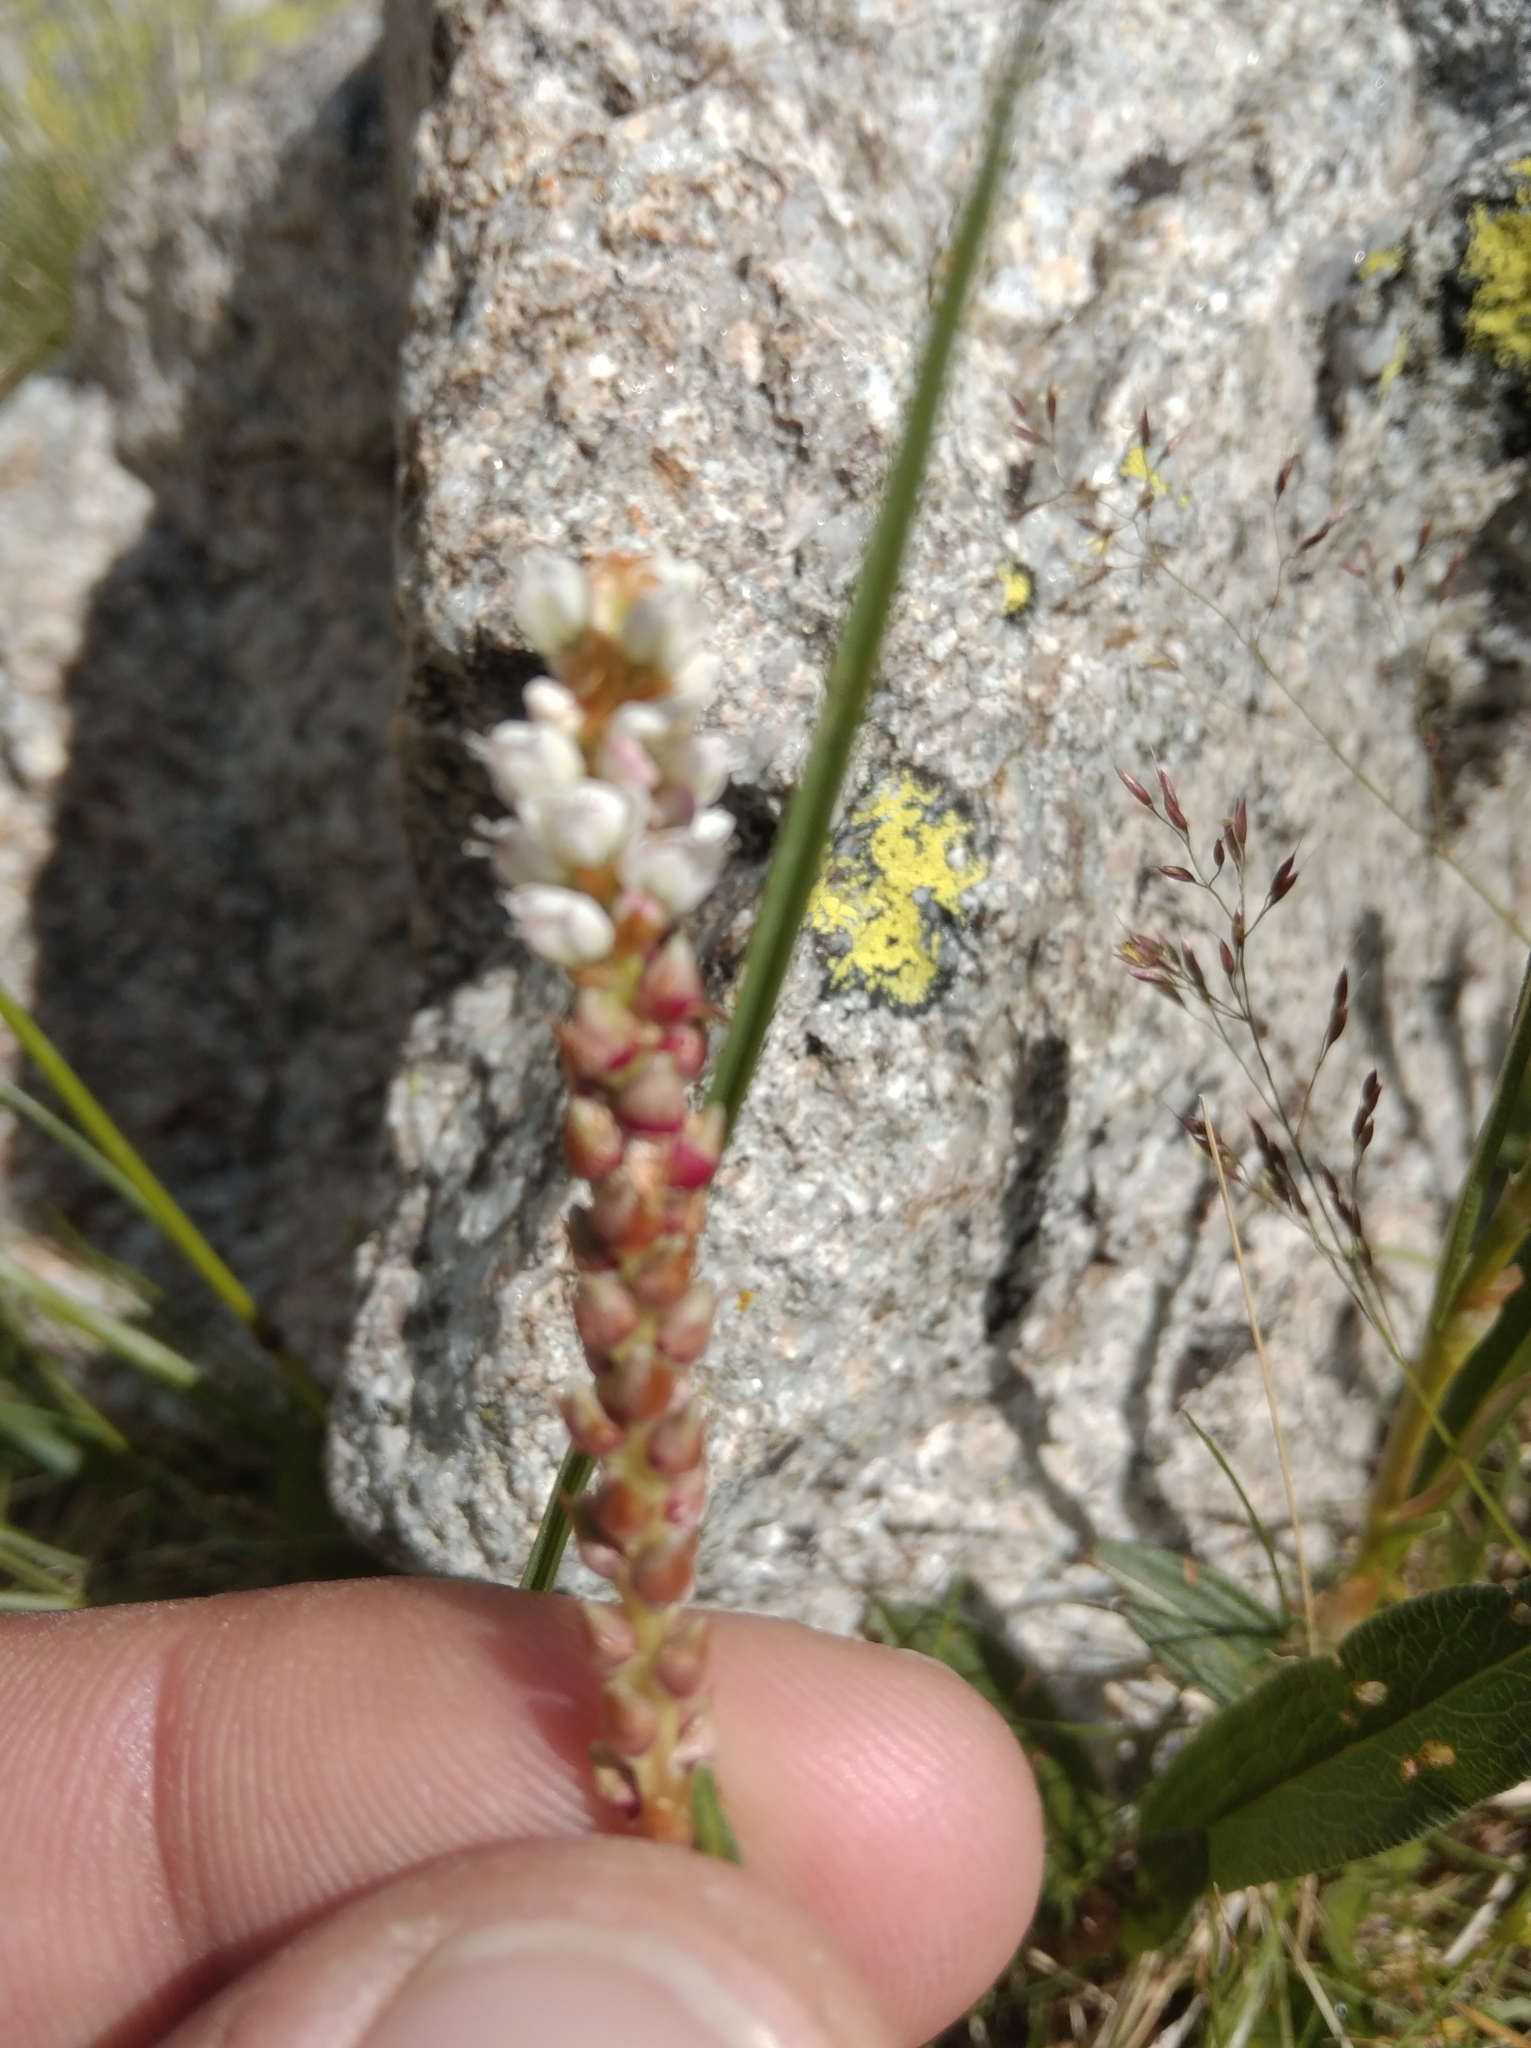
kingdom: Plantae
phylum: Tracheophyta
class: Magnoliopsida
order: Caryophyllales
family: Polygonaceae
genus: Bistorta
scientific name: Bistorta vivipara
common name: Alpine bistort
